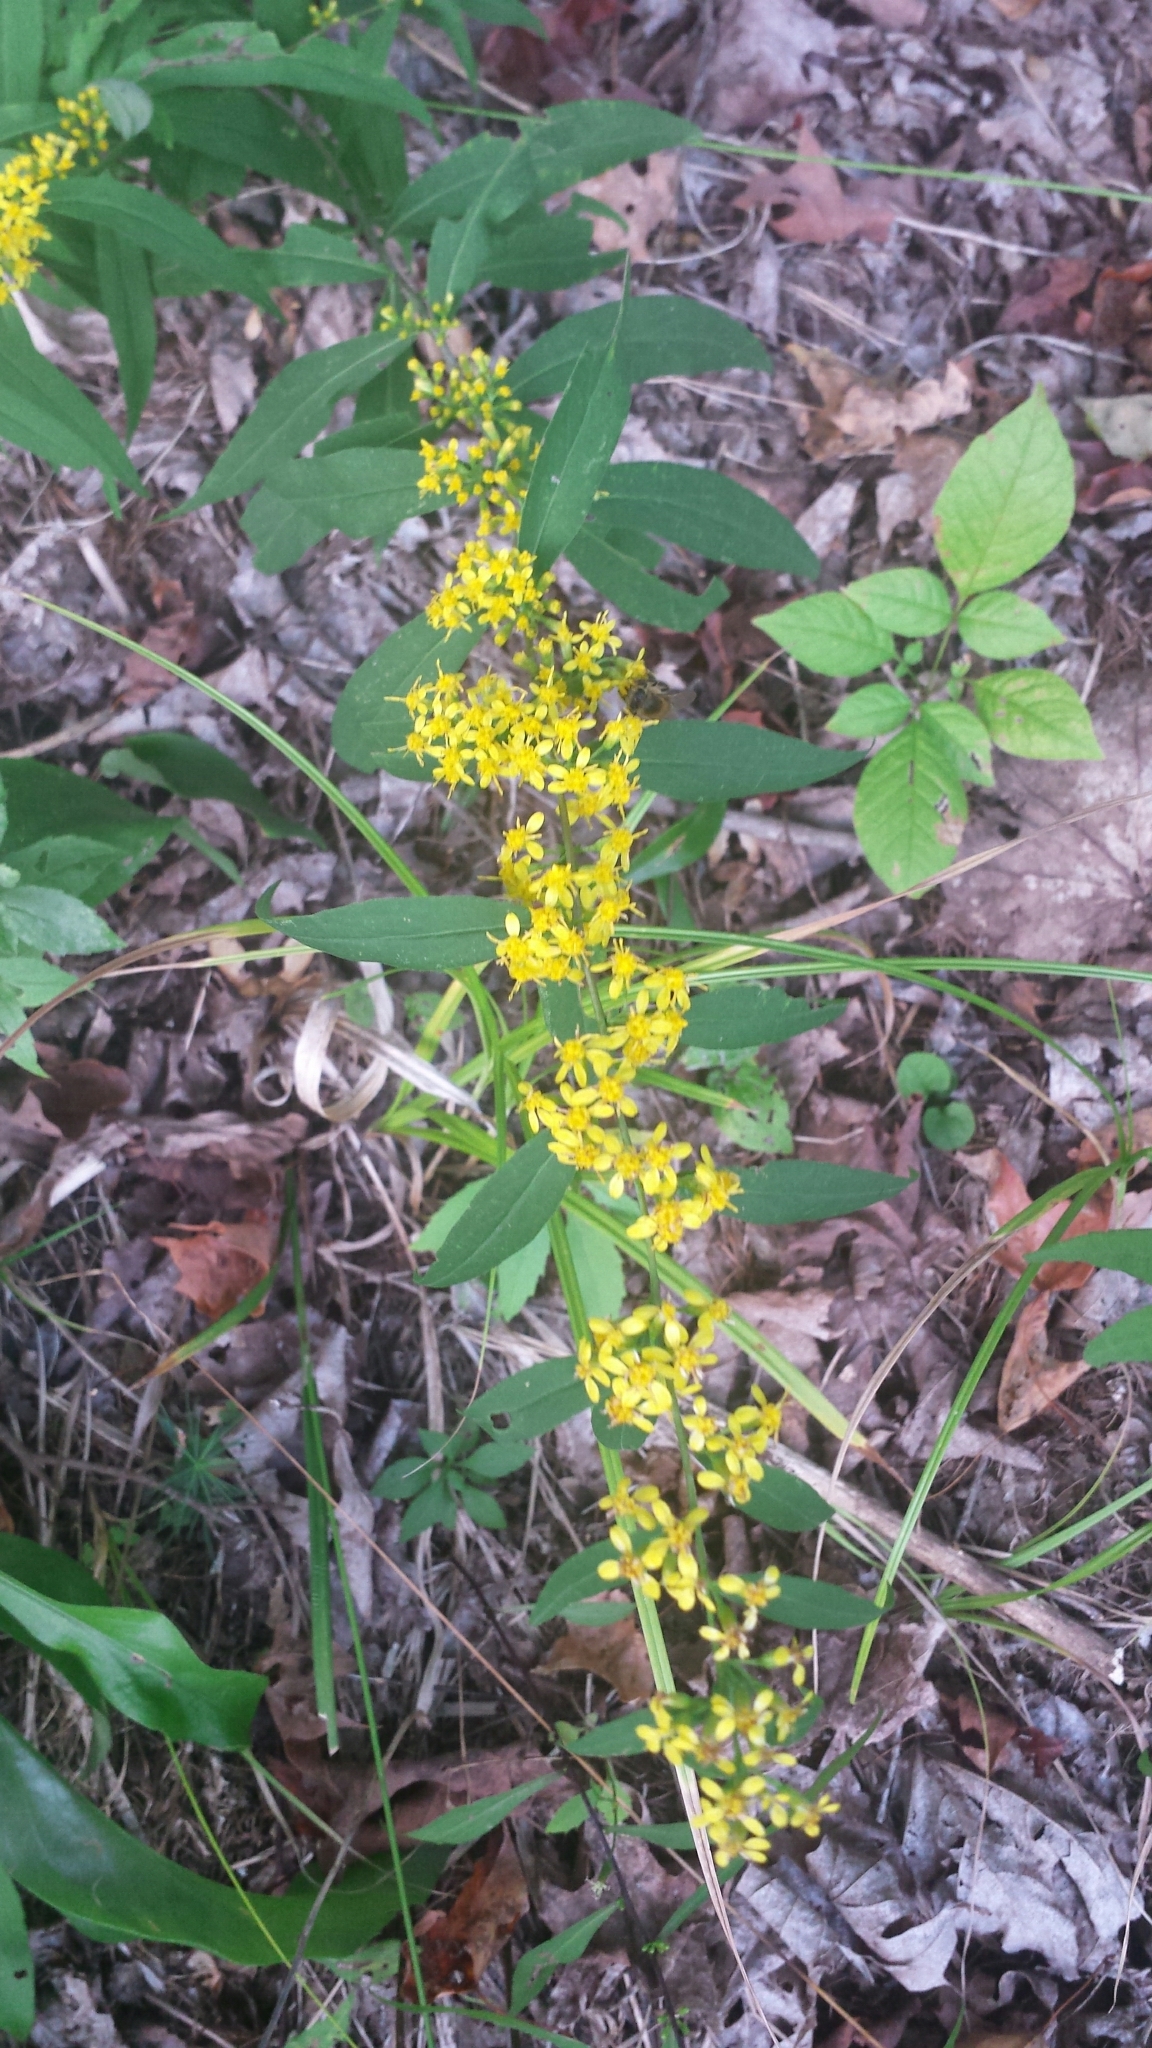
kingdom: Plantae
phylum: Tracheophyta
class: Magnoliopsida
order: Asterales
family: Asteraceae
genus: Solidago
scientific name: Solidago caesia
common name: Woodland goldenrod
